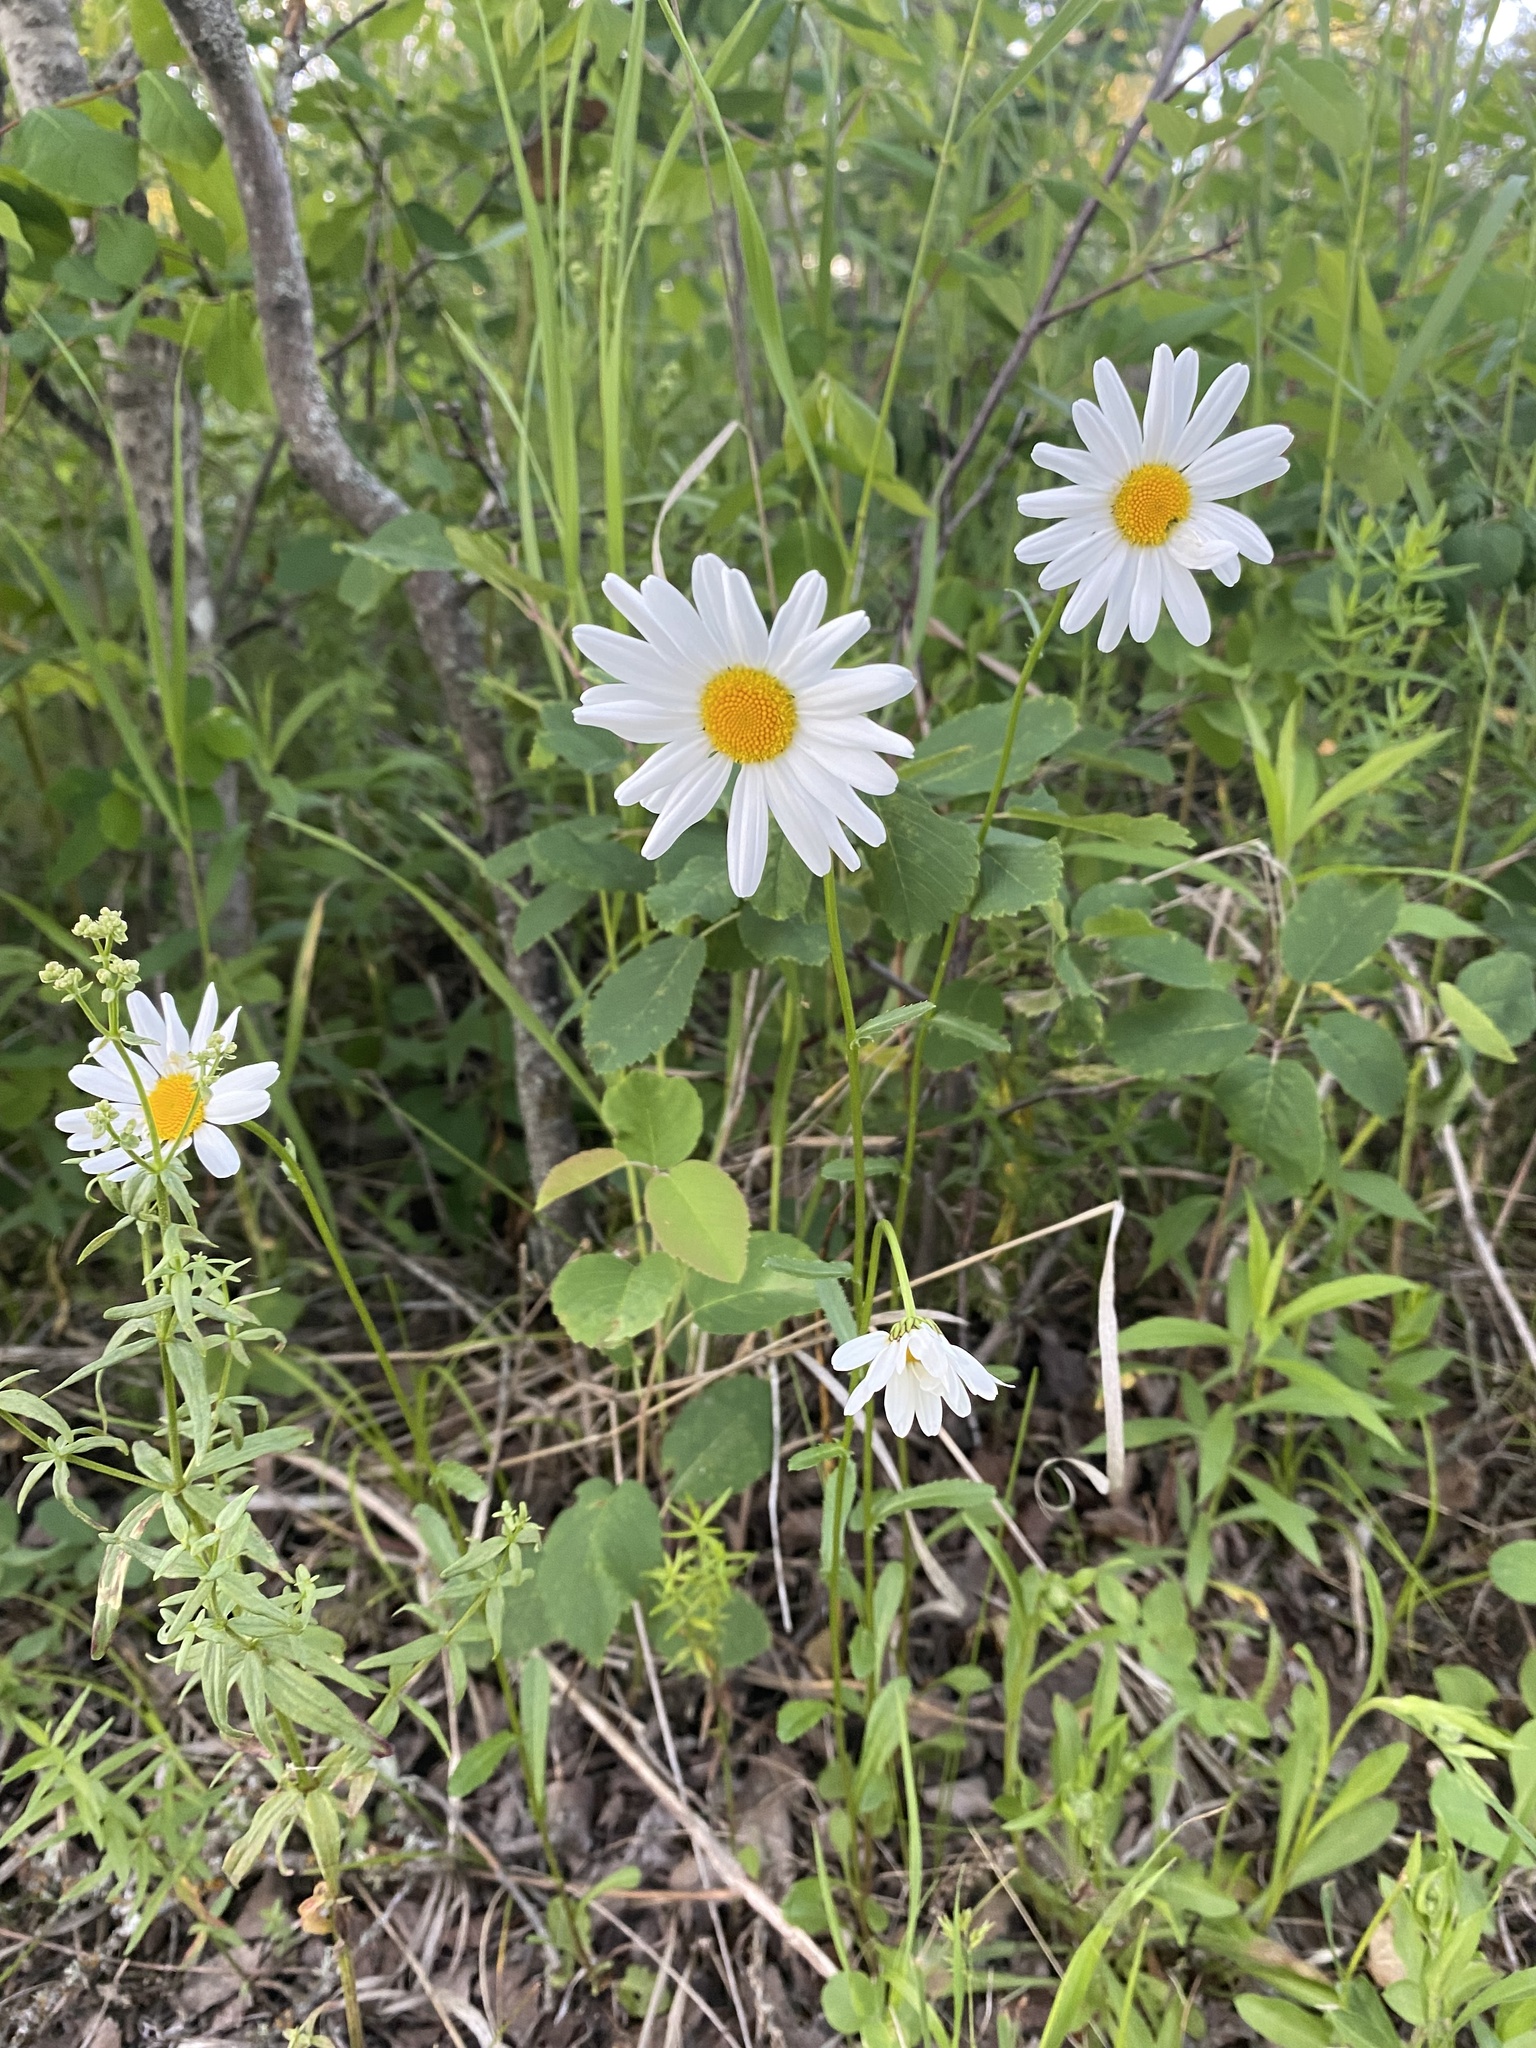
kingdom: Plantae
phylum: Tracheophyta
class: Magnoliopsida
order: Asterales
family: Asteraceae
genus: Leucanthemum
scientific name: Leucanthemum vulgare
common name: Oxeye daisy
